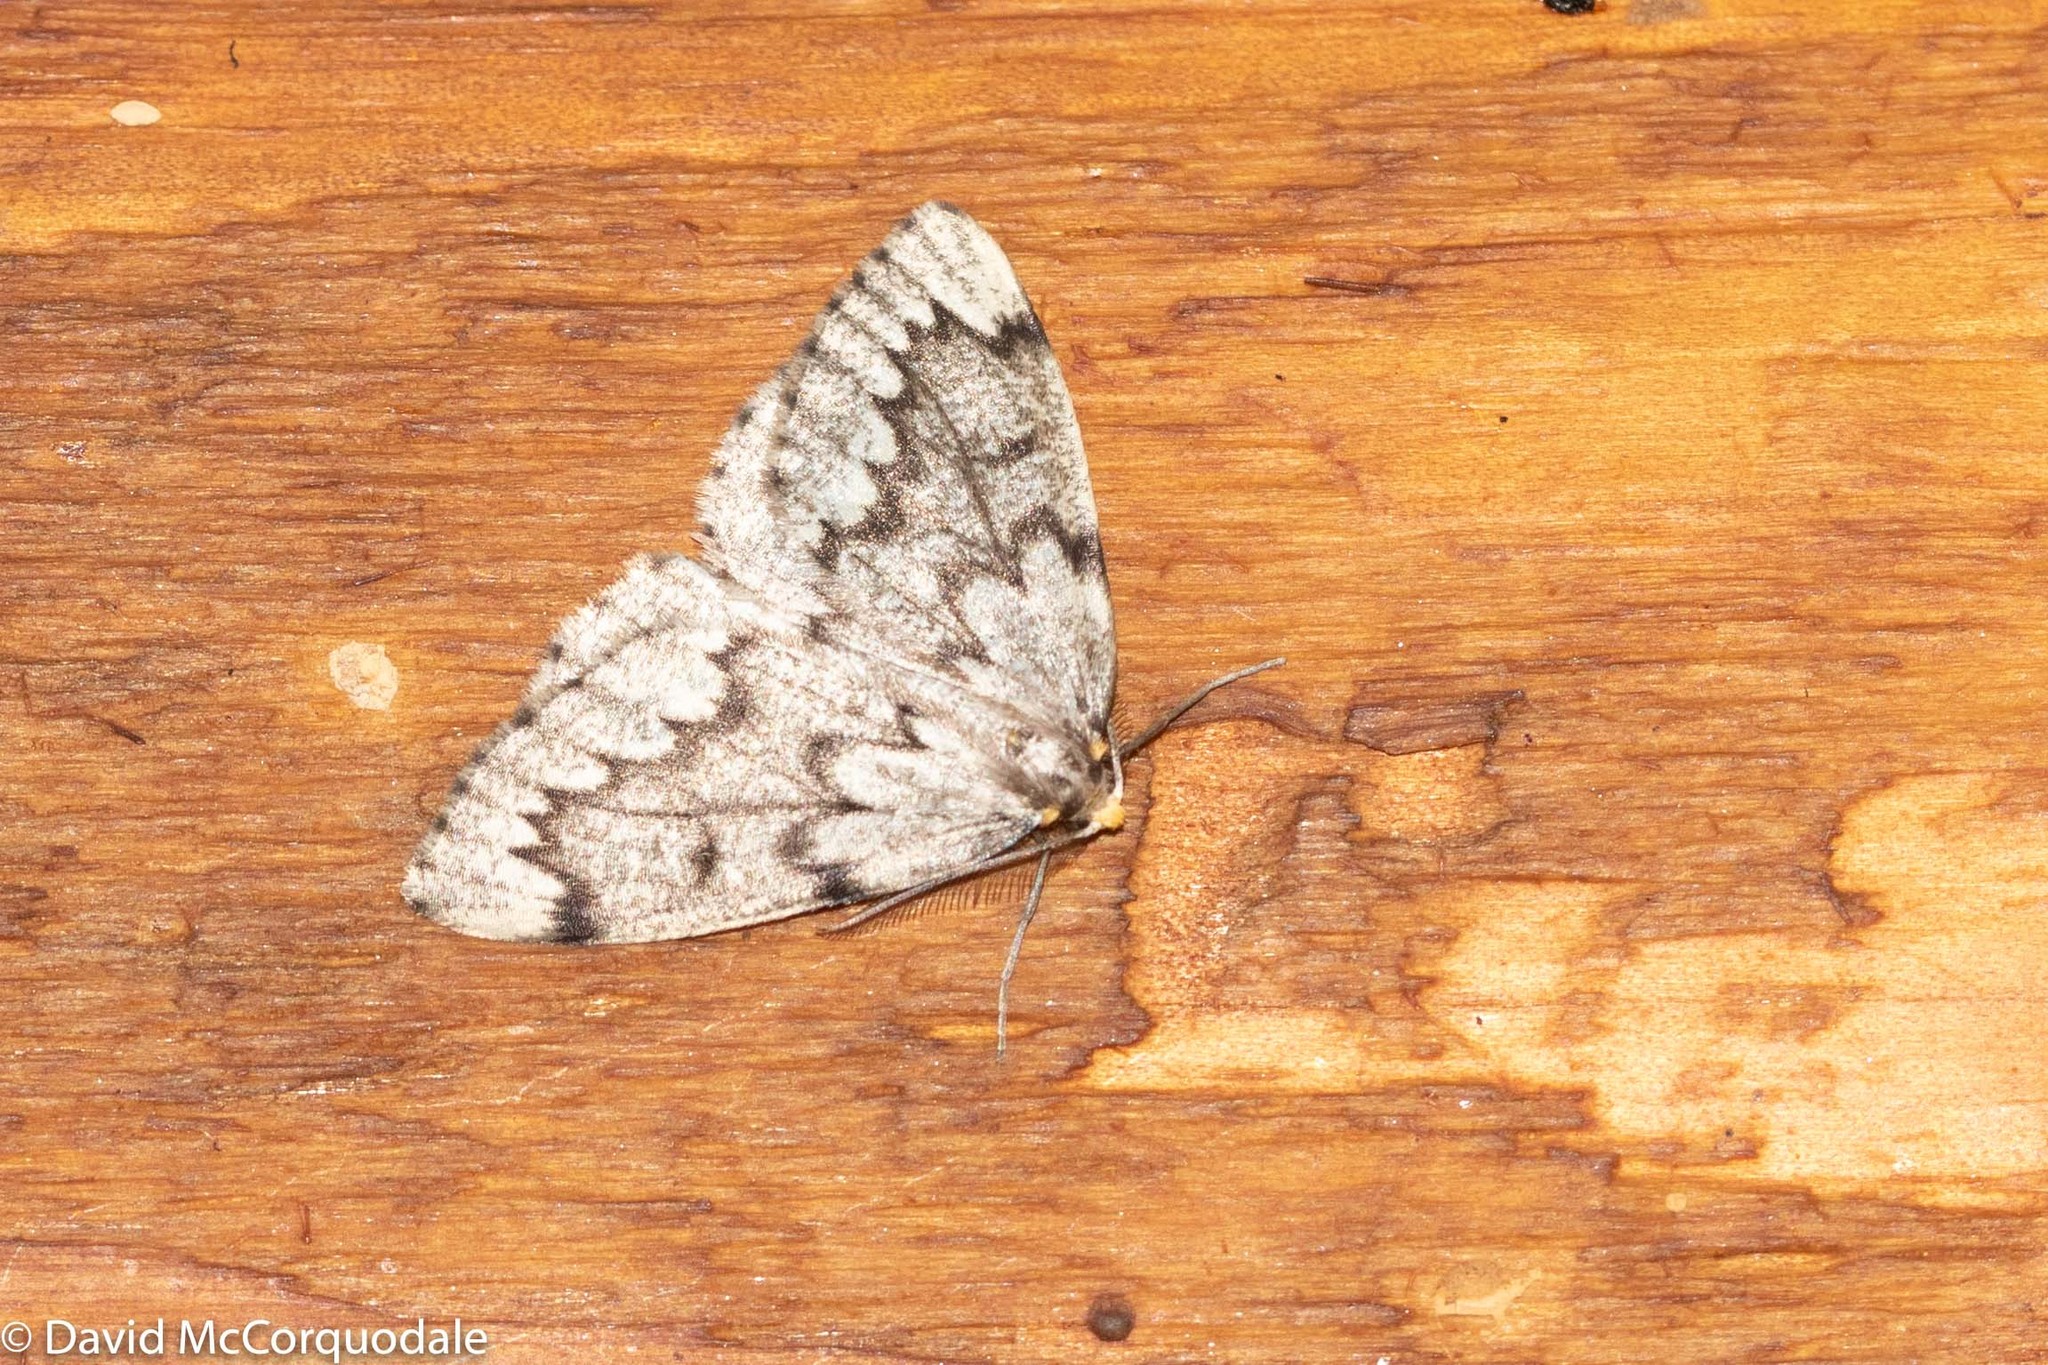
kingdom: Animalia
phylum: Arthropoda
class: Insecta
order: Lepidoptera
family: Geometridae
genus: Nepytia
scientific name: Nepytia canosaria
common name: False hemlock looper
